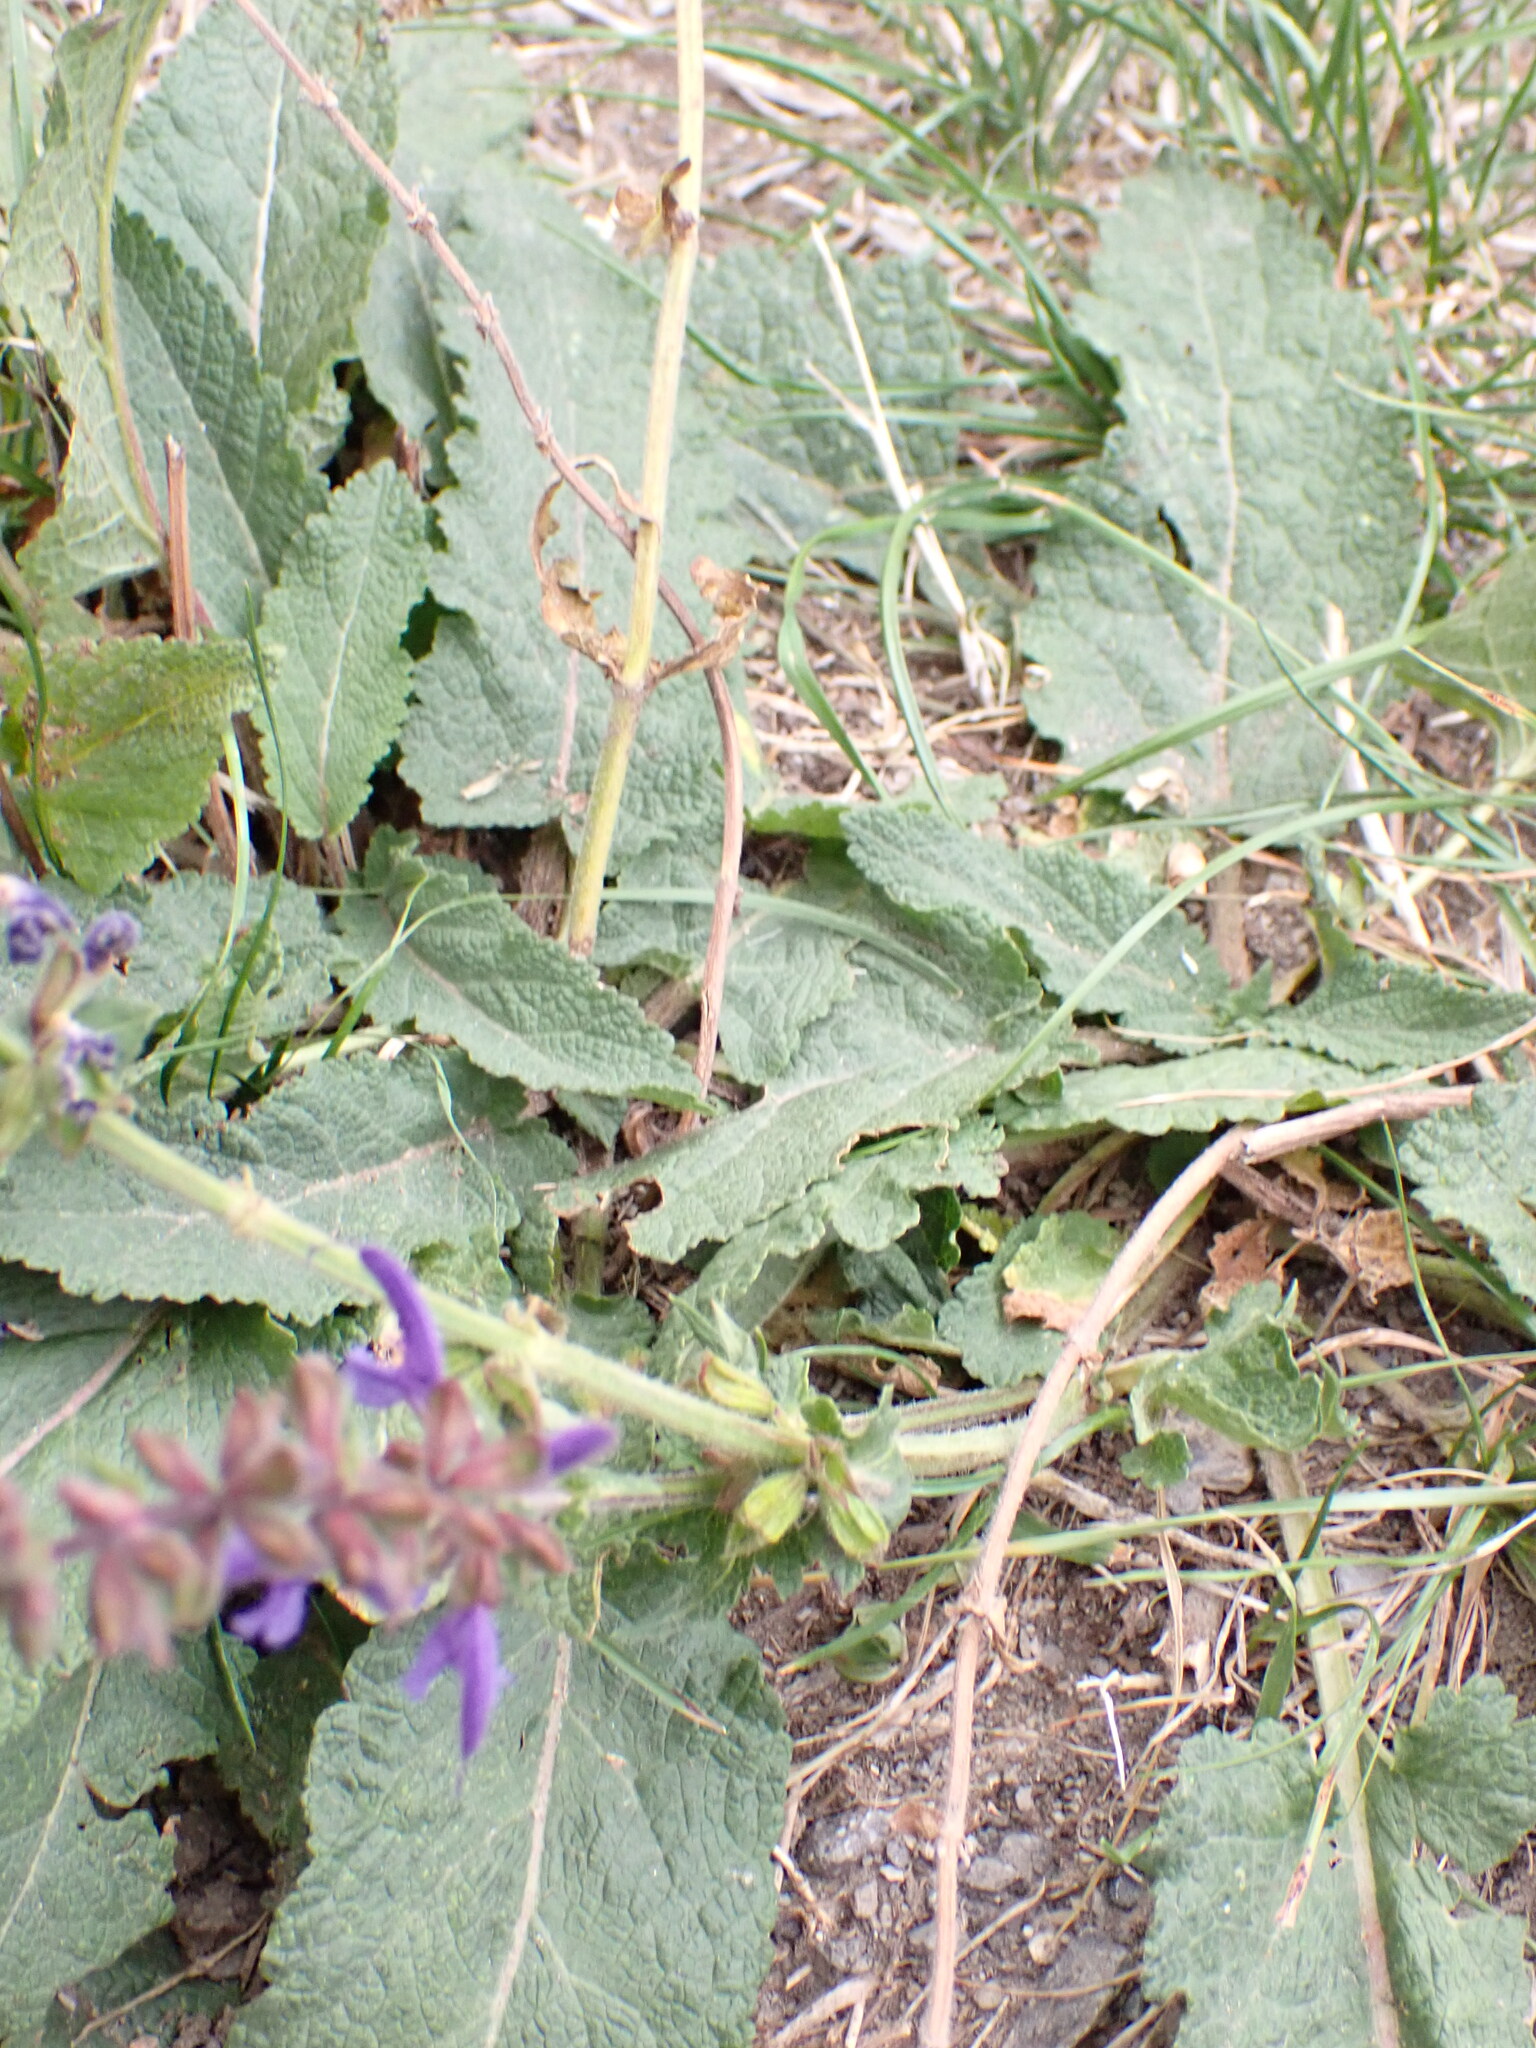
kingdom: Plantae
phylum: Tracheophyta
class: Magnoliopsida
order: Lamiales
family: Lamiaceae
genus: Salvia
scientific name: Salvia pratensis
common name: Meadow sage
